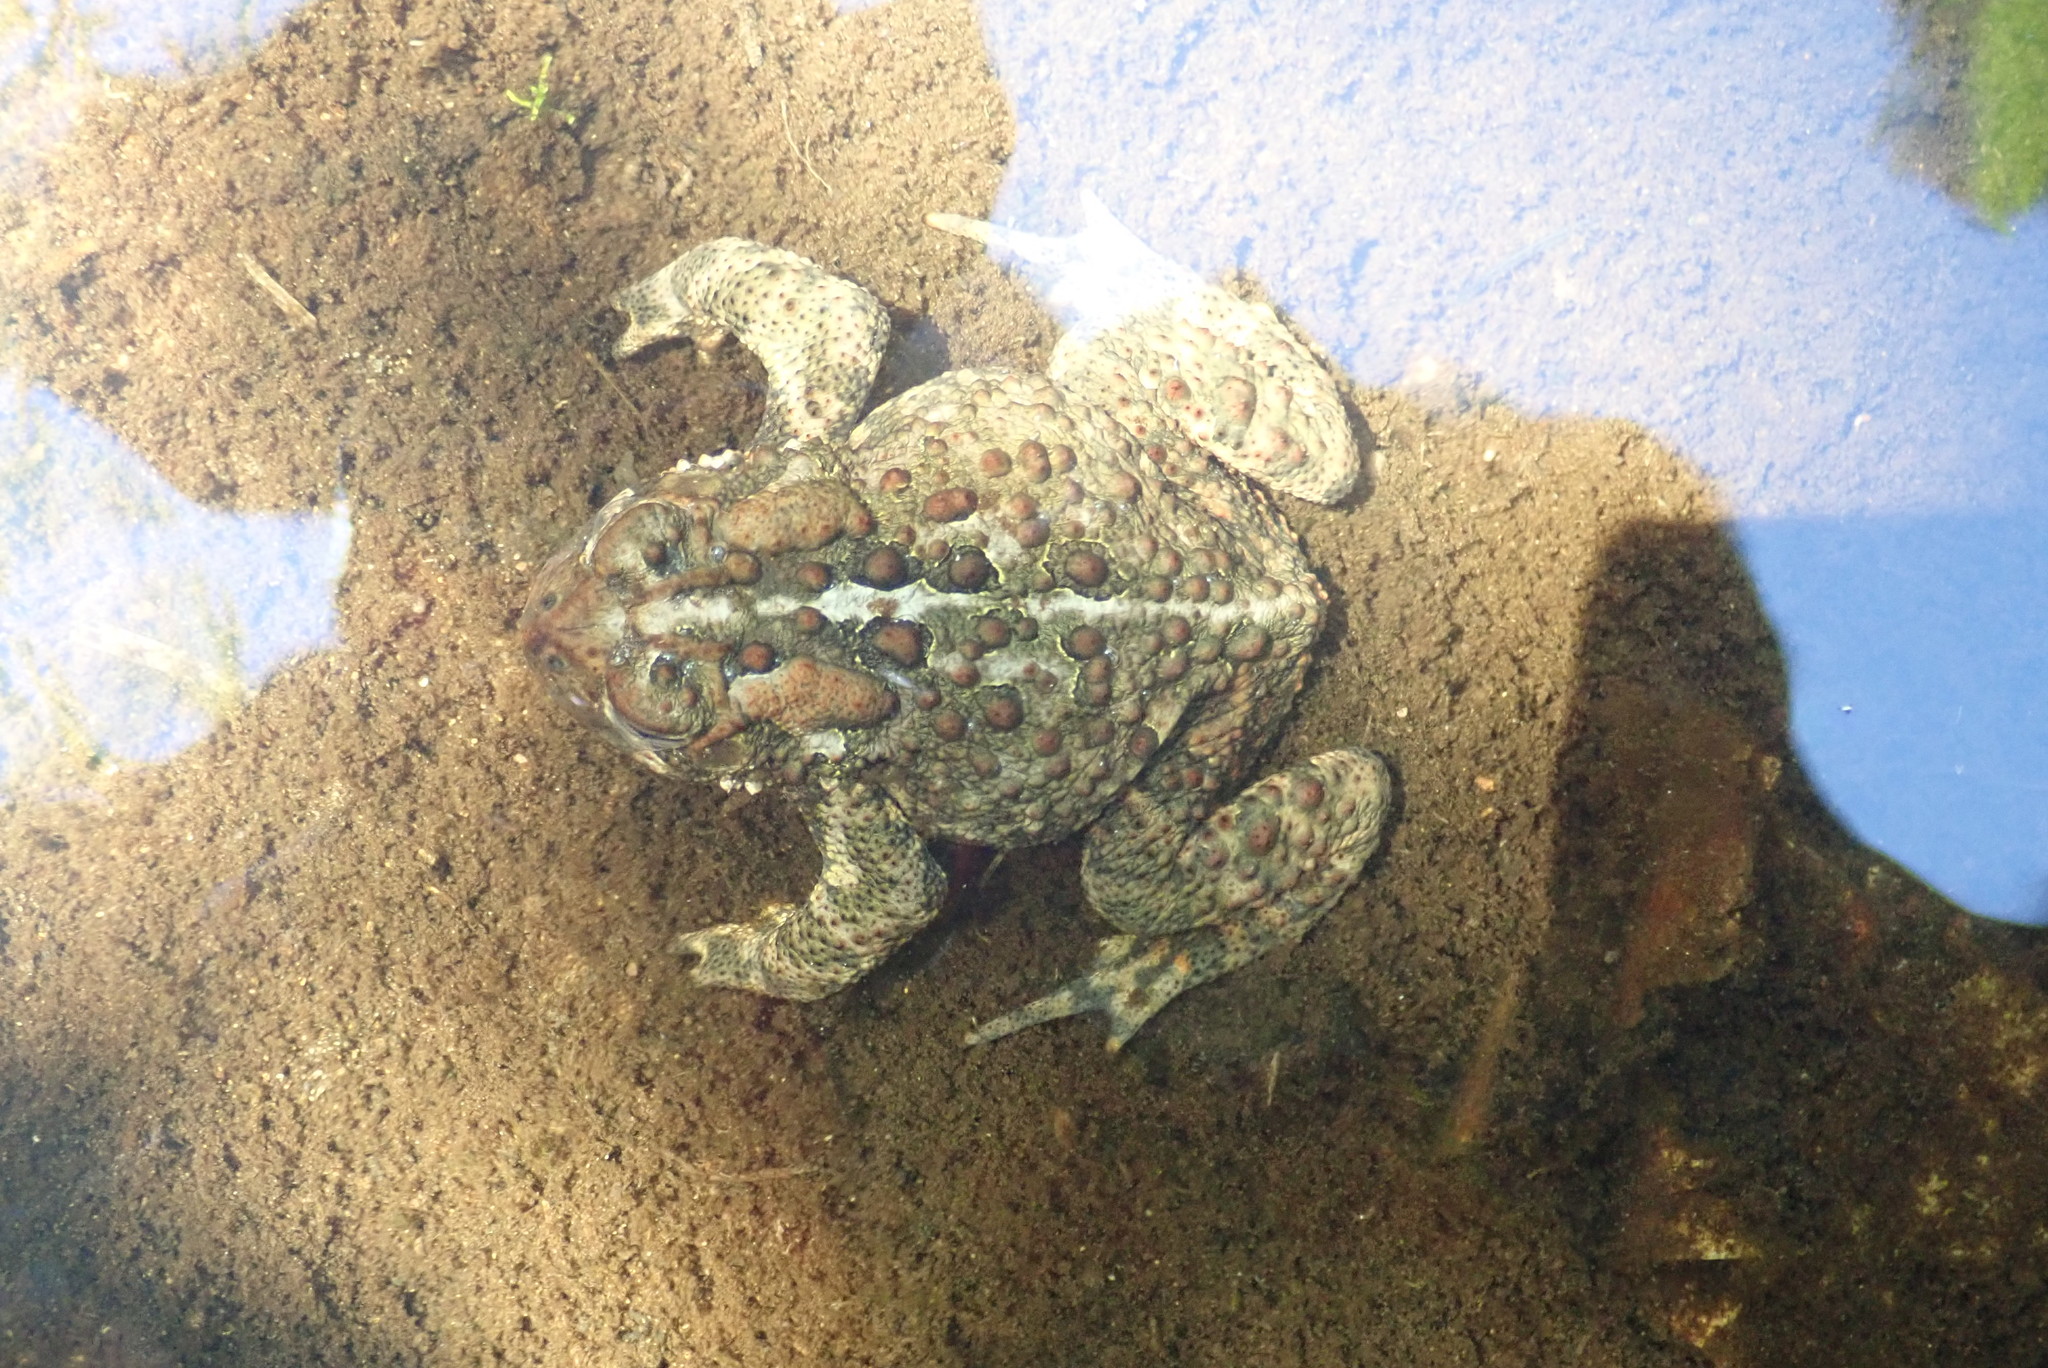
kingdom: Animalia
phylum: Chordata
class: Amphibia
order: Anura
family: Bufonidae
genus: Anaxyrus
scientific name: Anaxyrus americanus
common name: American toad
